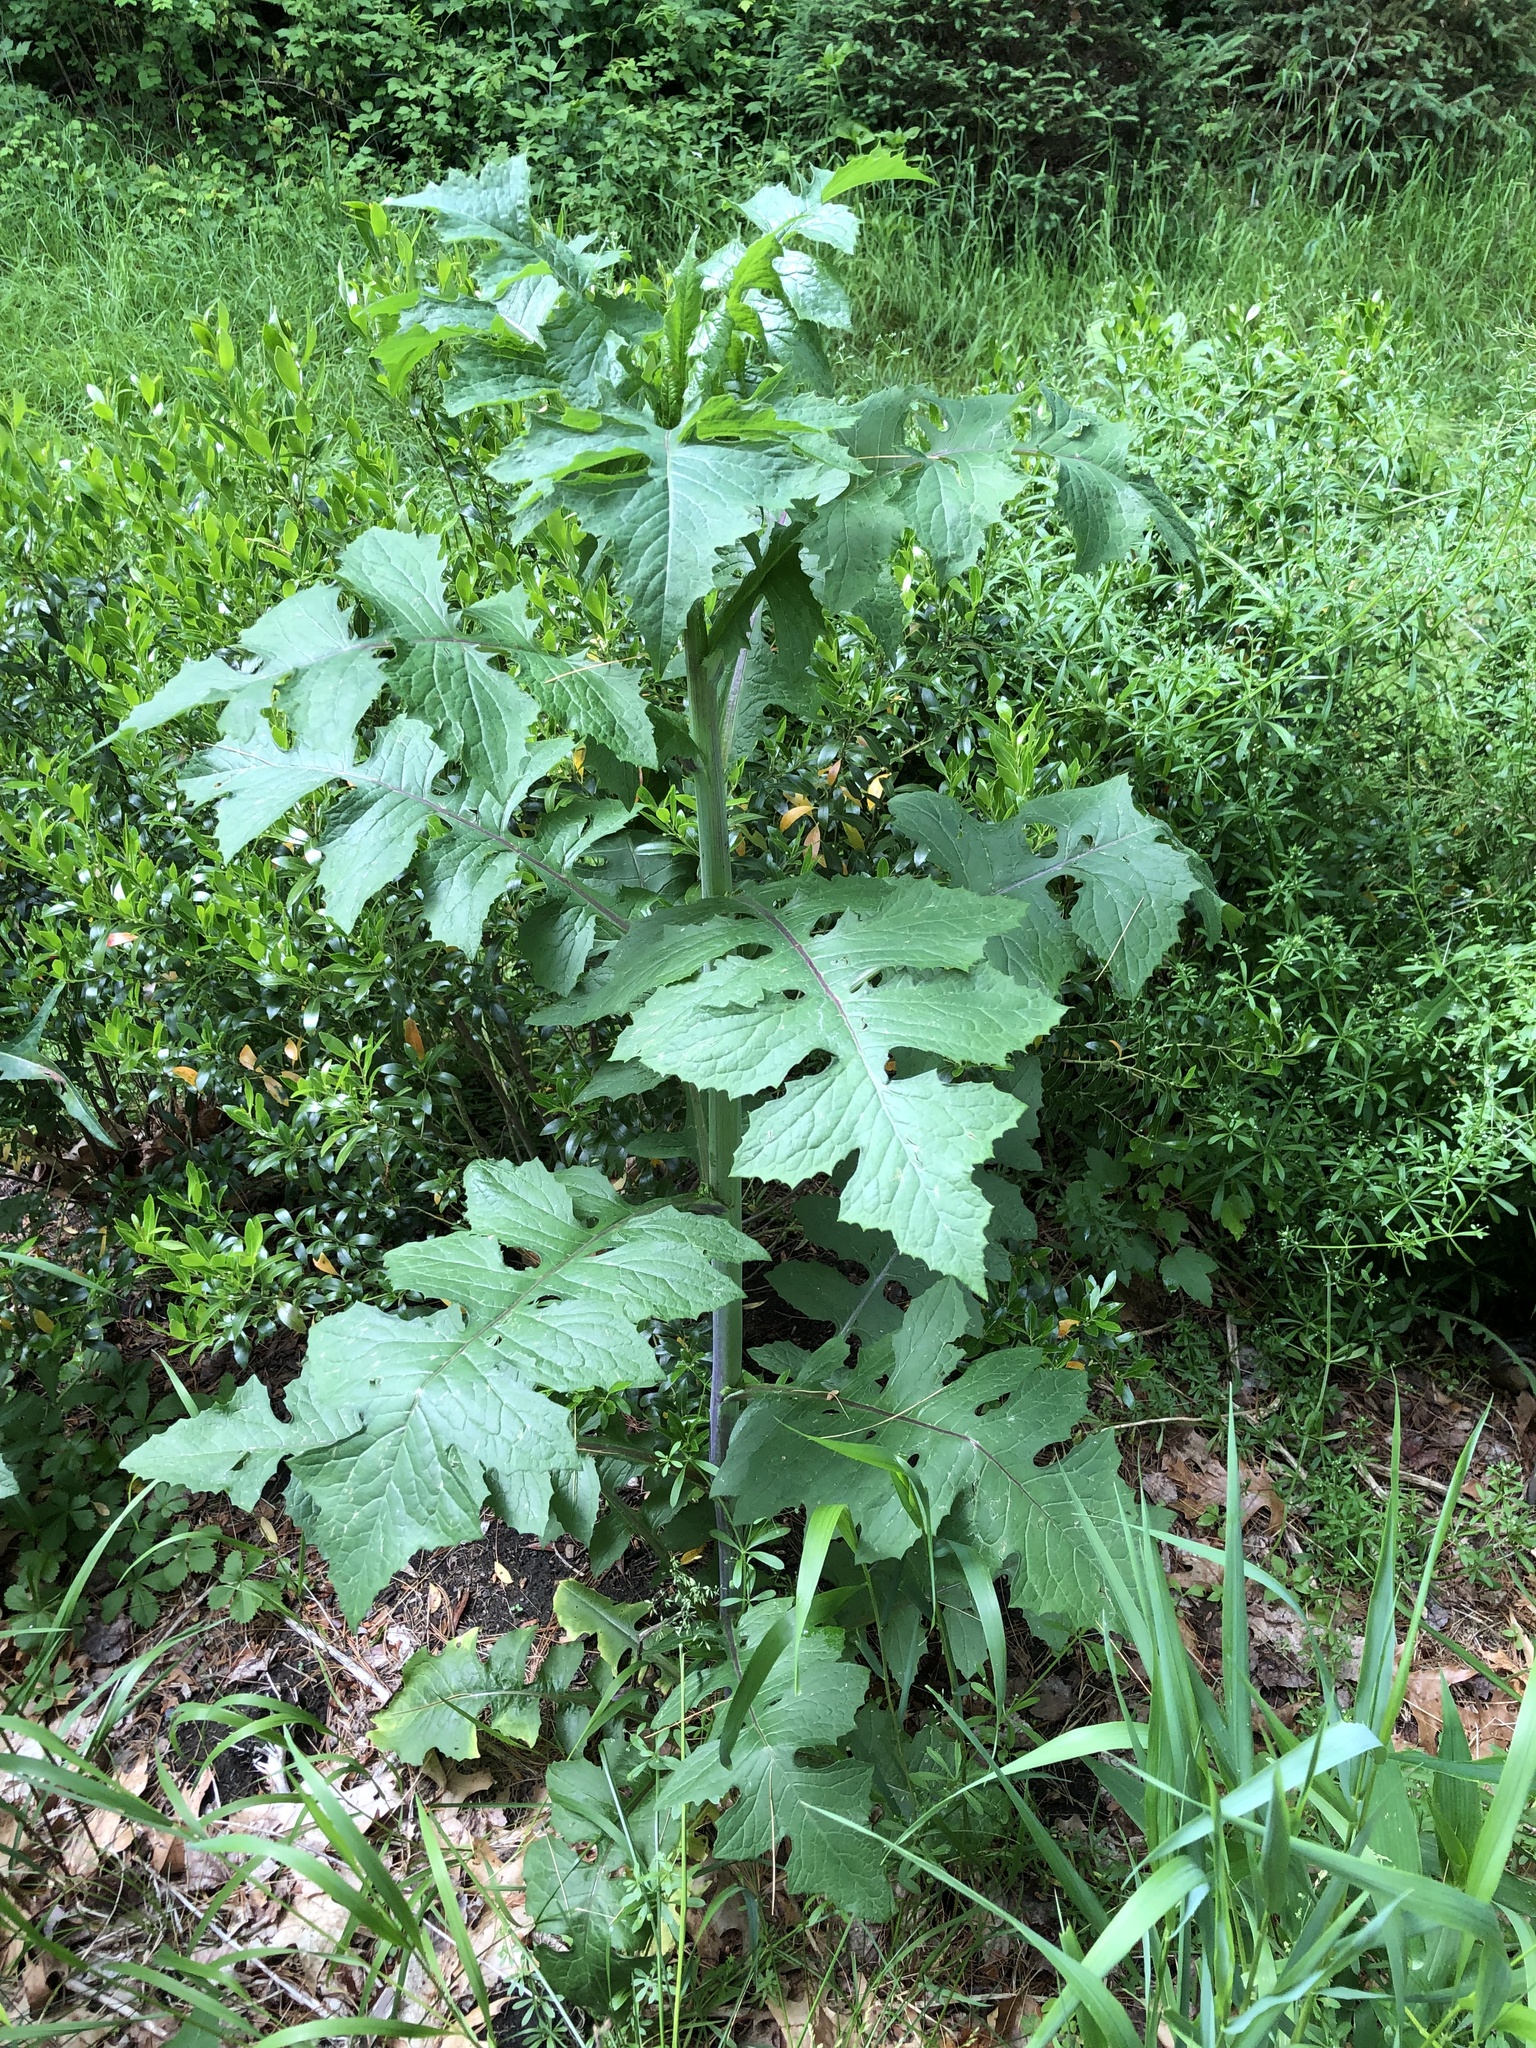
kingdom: Plantae
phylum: Tracheophyta
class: Magnoliopsida
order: Asterales
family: Asteraceae
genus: Lactuca
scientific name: Lactuca biennis
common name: Blue wood lettuce
